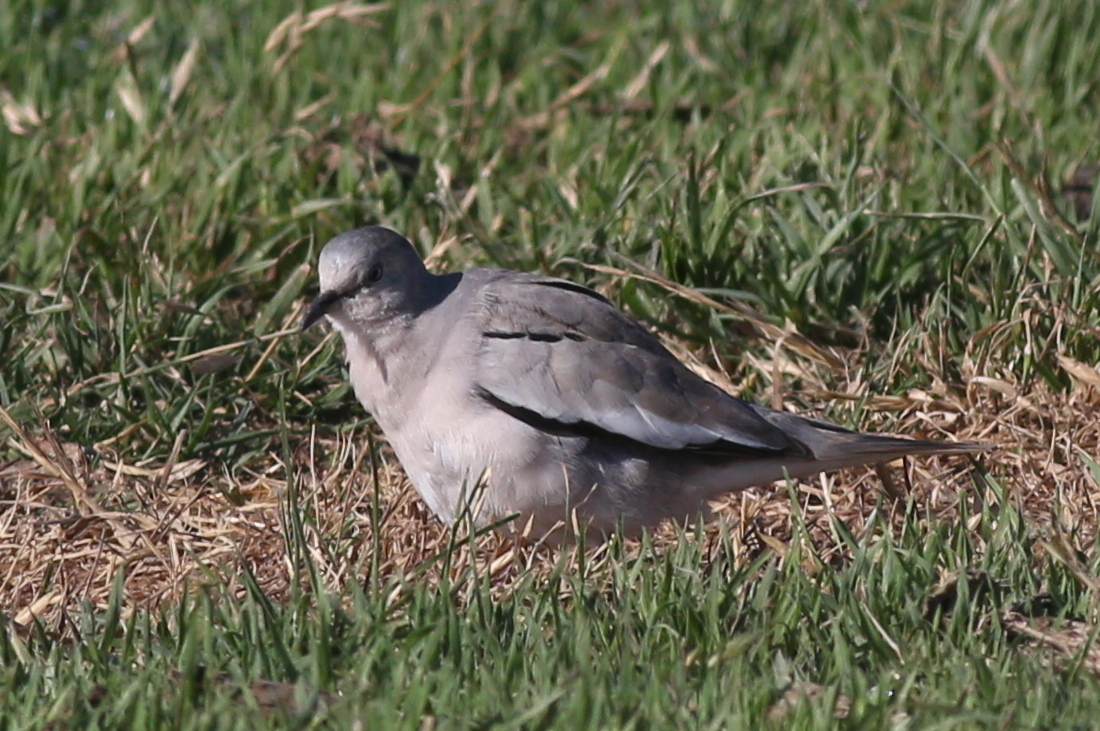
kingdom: Animalia
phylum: Chordata
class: Aves
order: Columbiformes
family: Columbidae
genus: Columbina
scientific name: Columbina picui
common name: Picui ground dove
